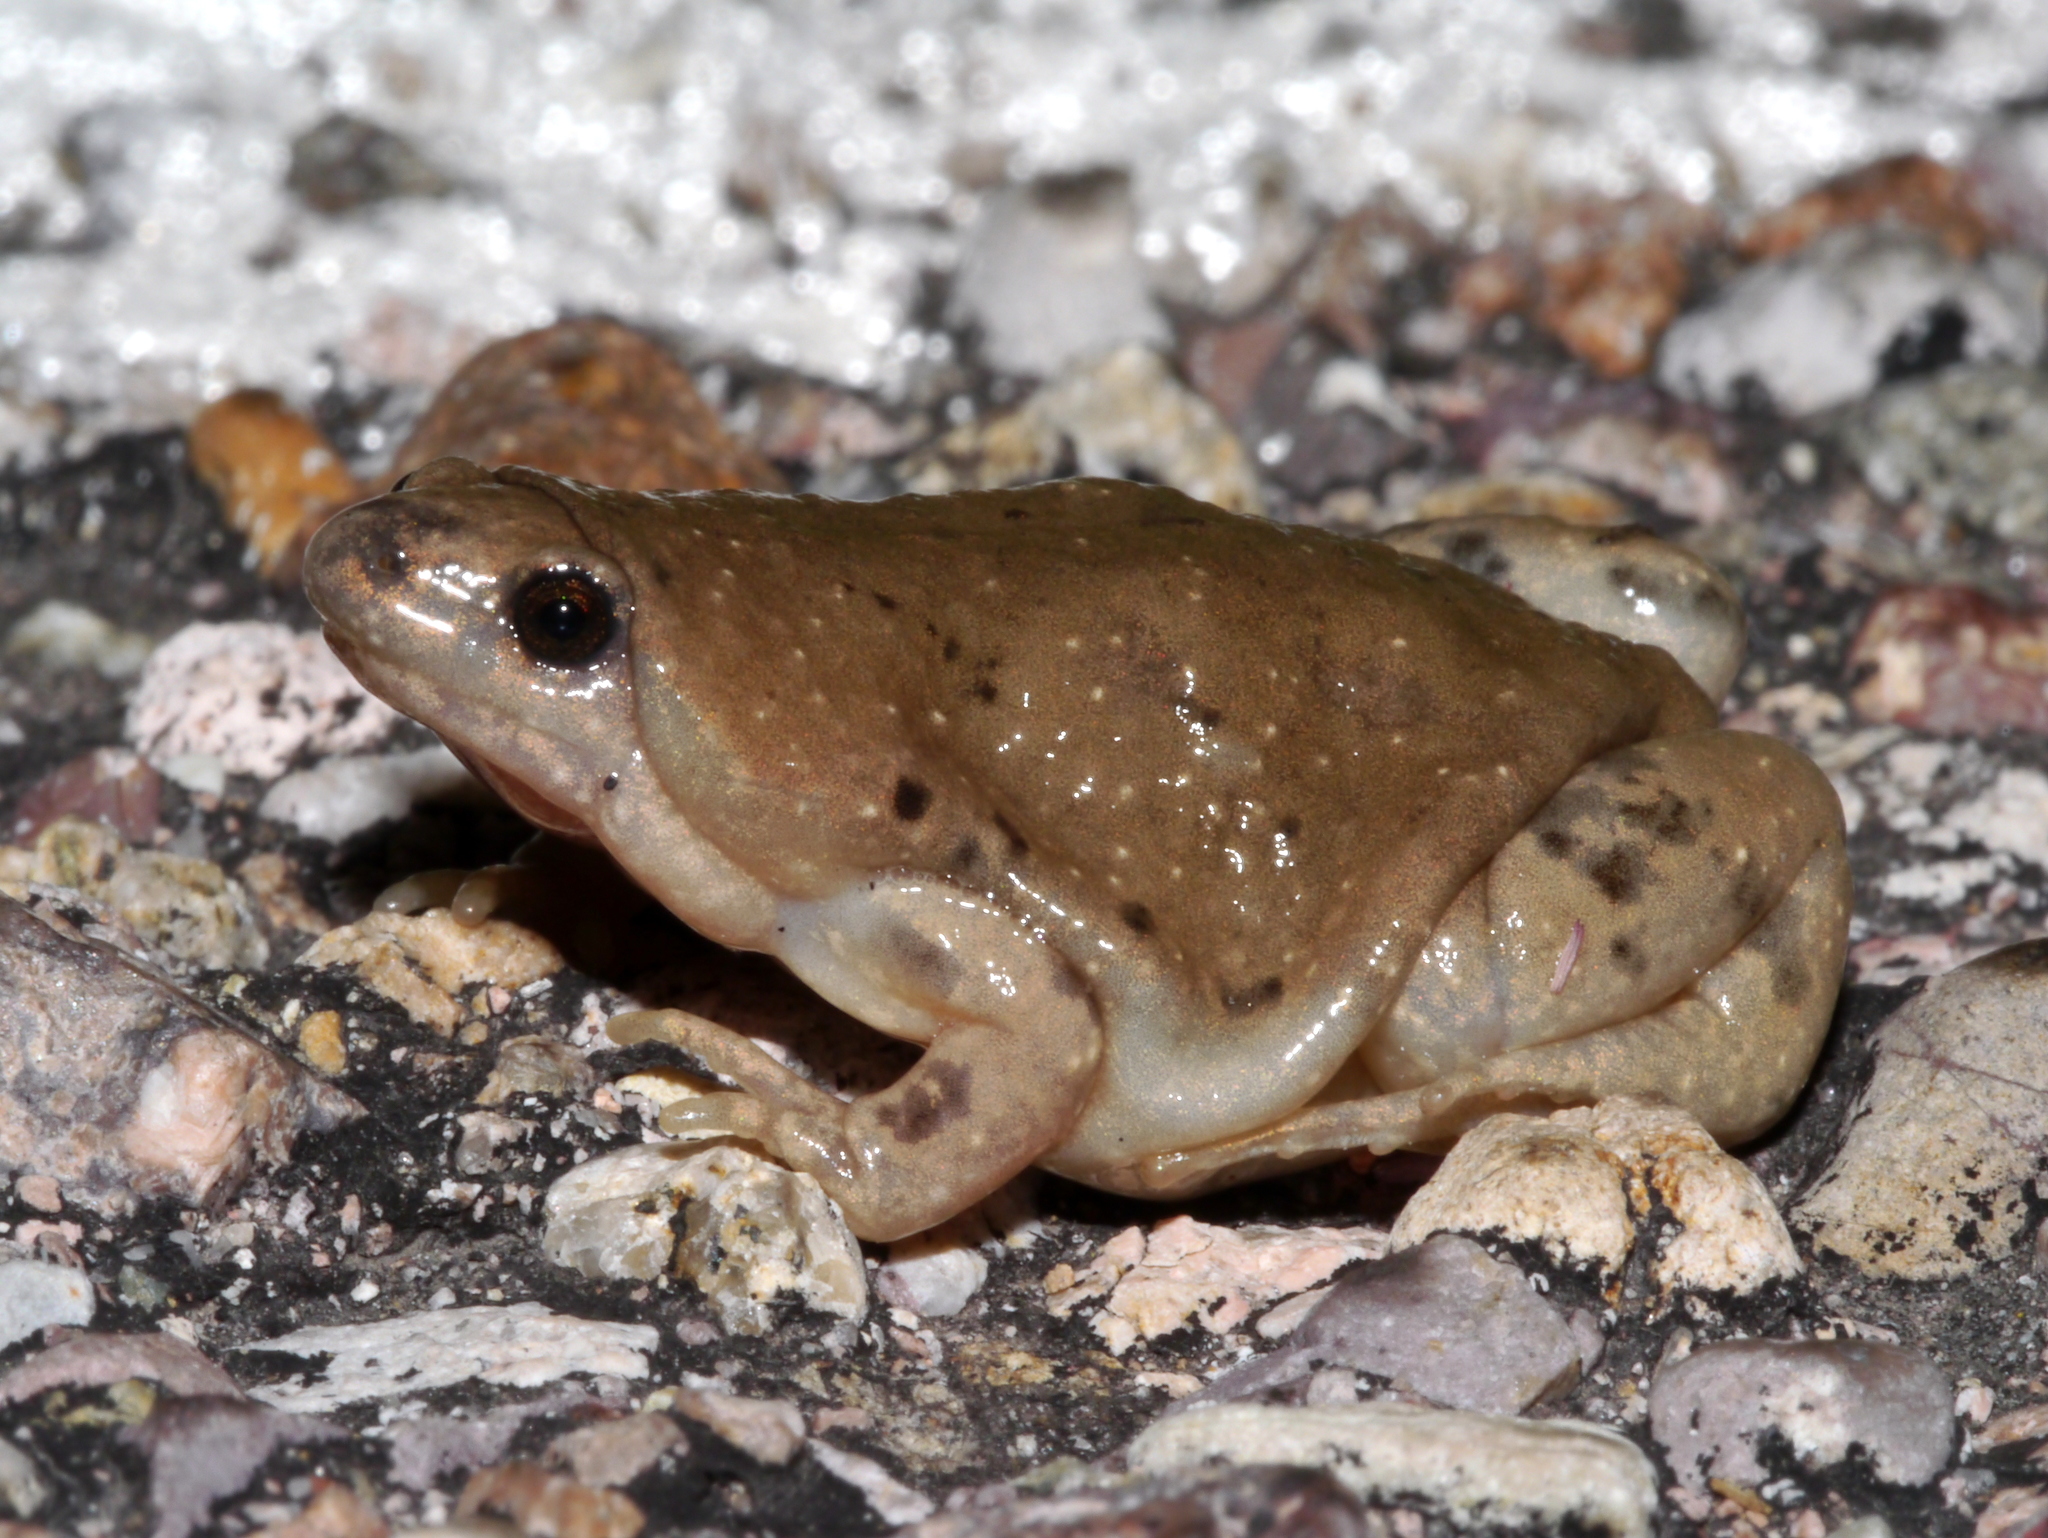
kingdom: Animalia
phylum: Chordata
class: Amphibia
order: Anura
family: Microhylidae
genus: Gastrophryne
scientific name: Gastrophryne mazatlanensis
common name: Sinaloan narrow-mouthed toad
